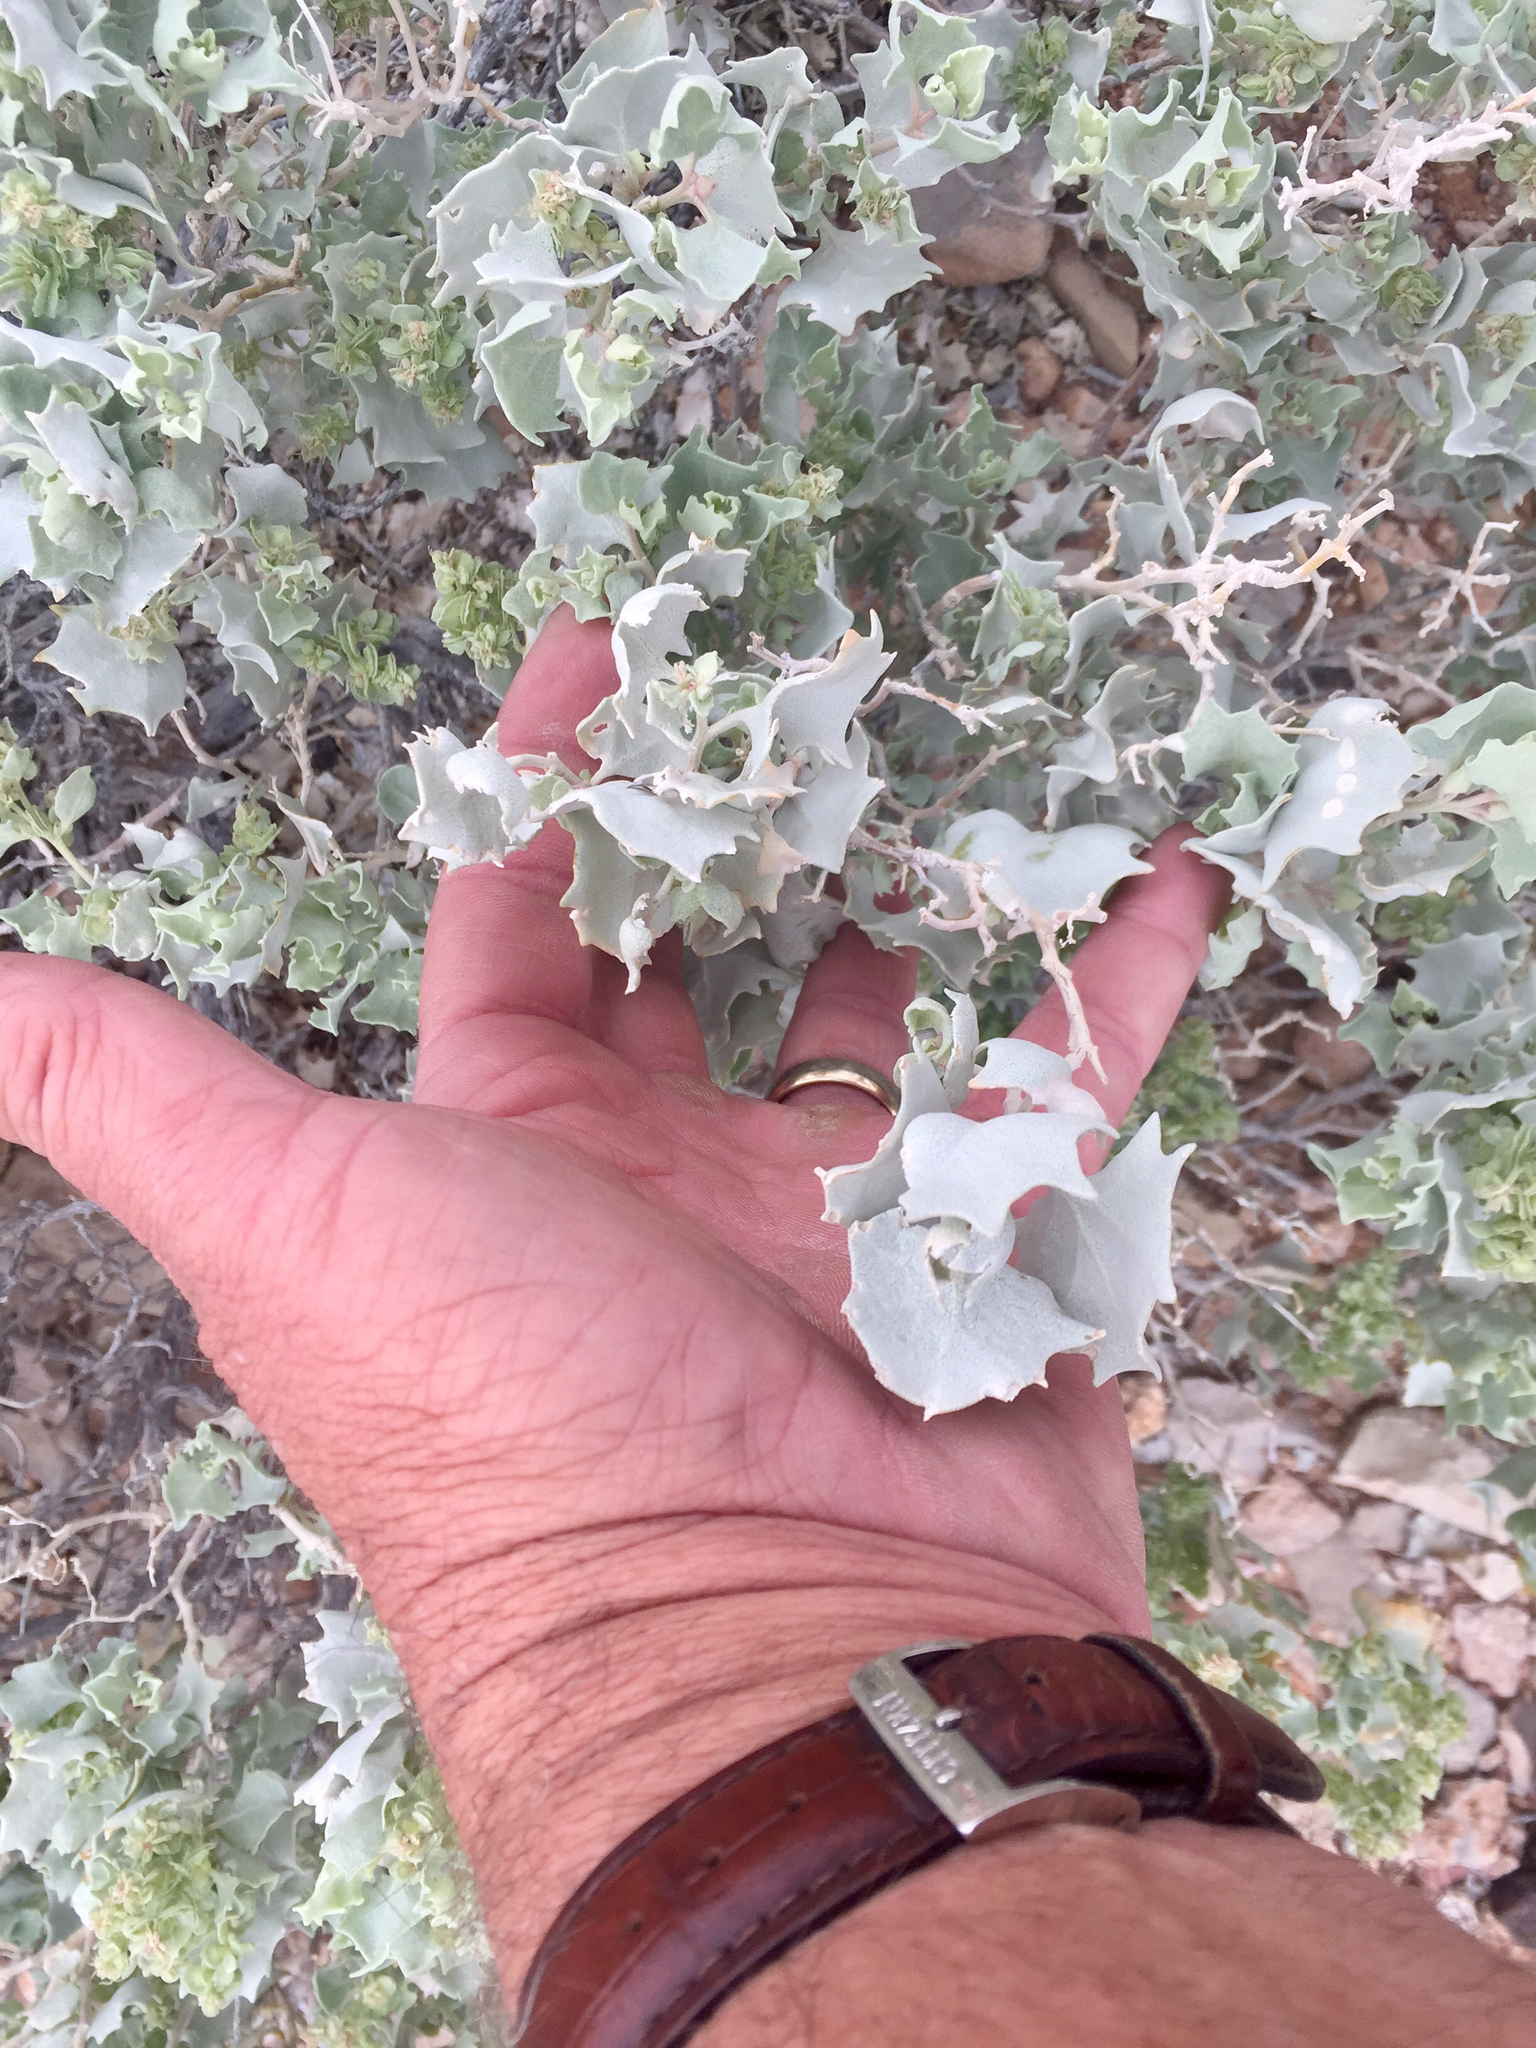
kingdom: Plantae
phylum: Tracheophyta
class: Magnoliopsida
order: Caryophyllales
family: Amaranthaceae
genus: Atriplex
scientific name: Atriplex hymenelytra
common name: Desert-holly
